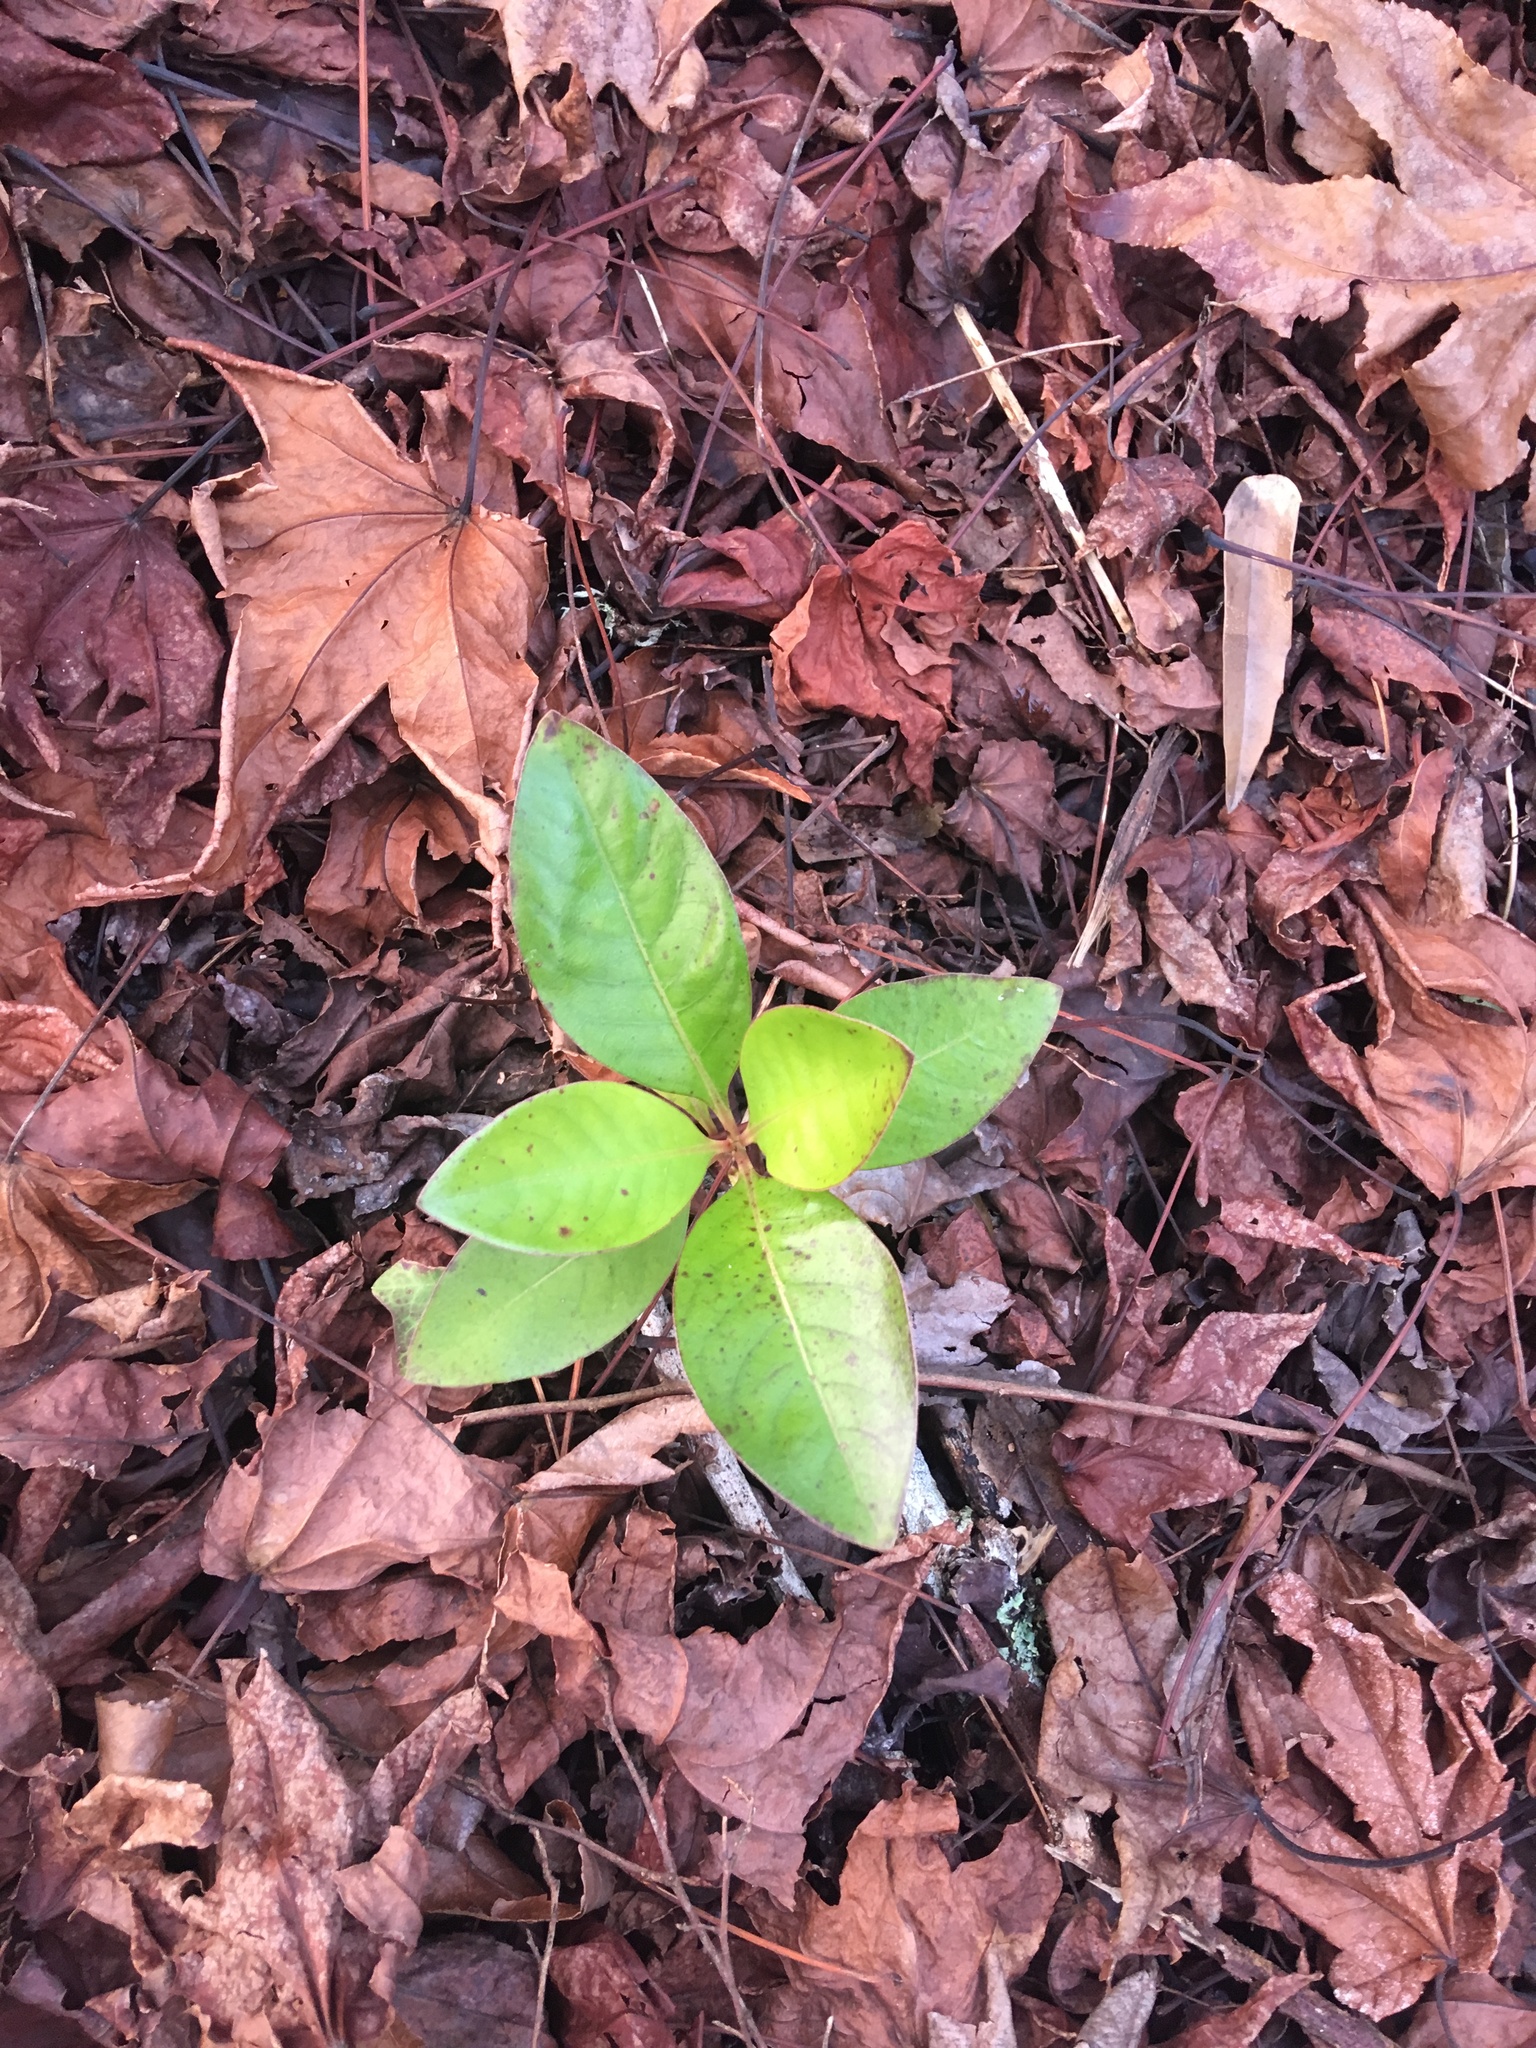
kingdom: Plantae
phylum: Tracheophyta
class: Magnoliopsida
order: Gentianales
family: Rubiaceae
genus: Coprosma
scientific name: Coprosma robusta
